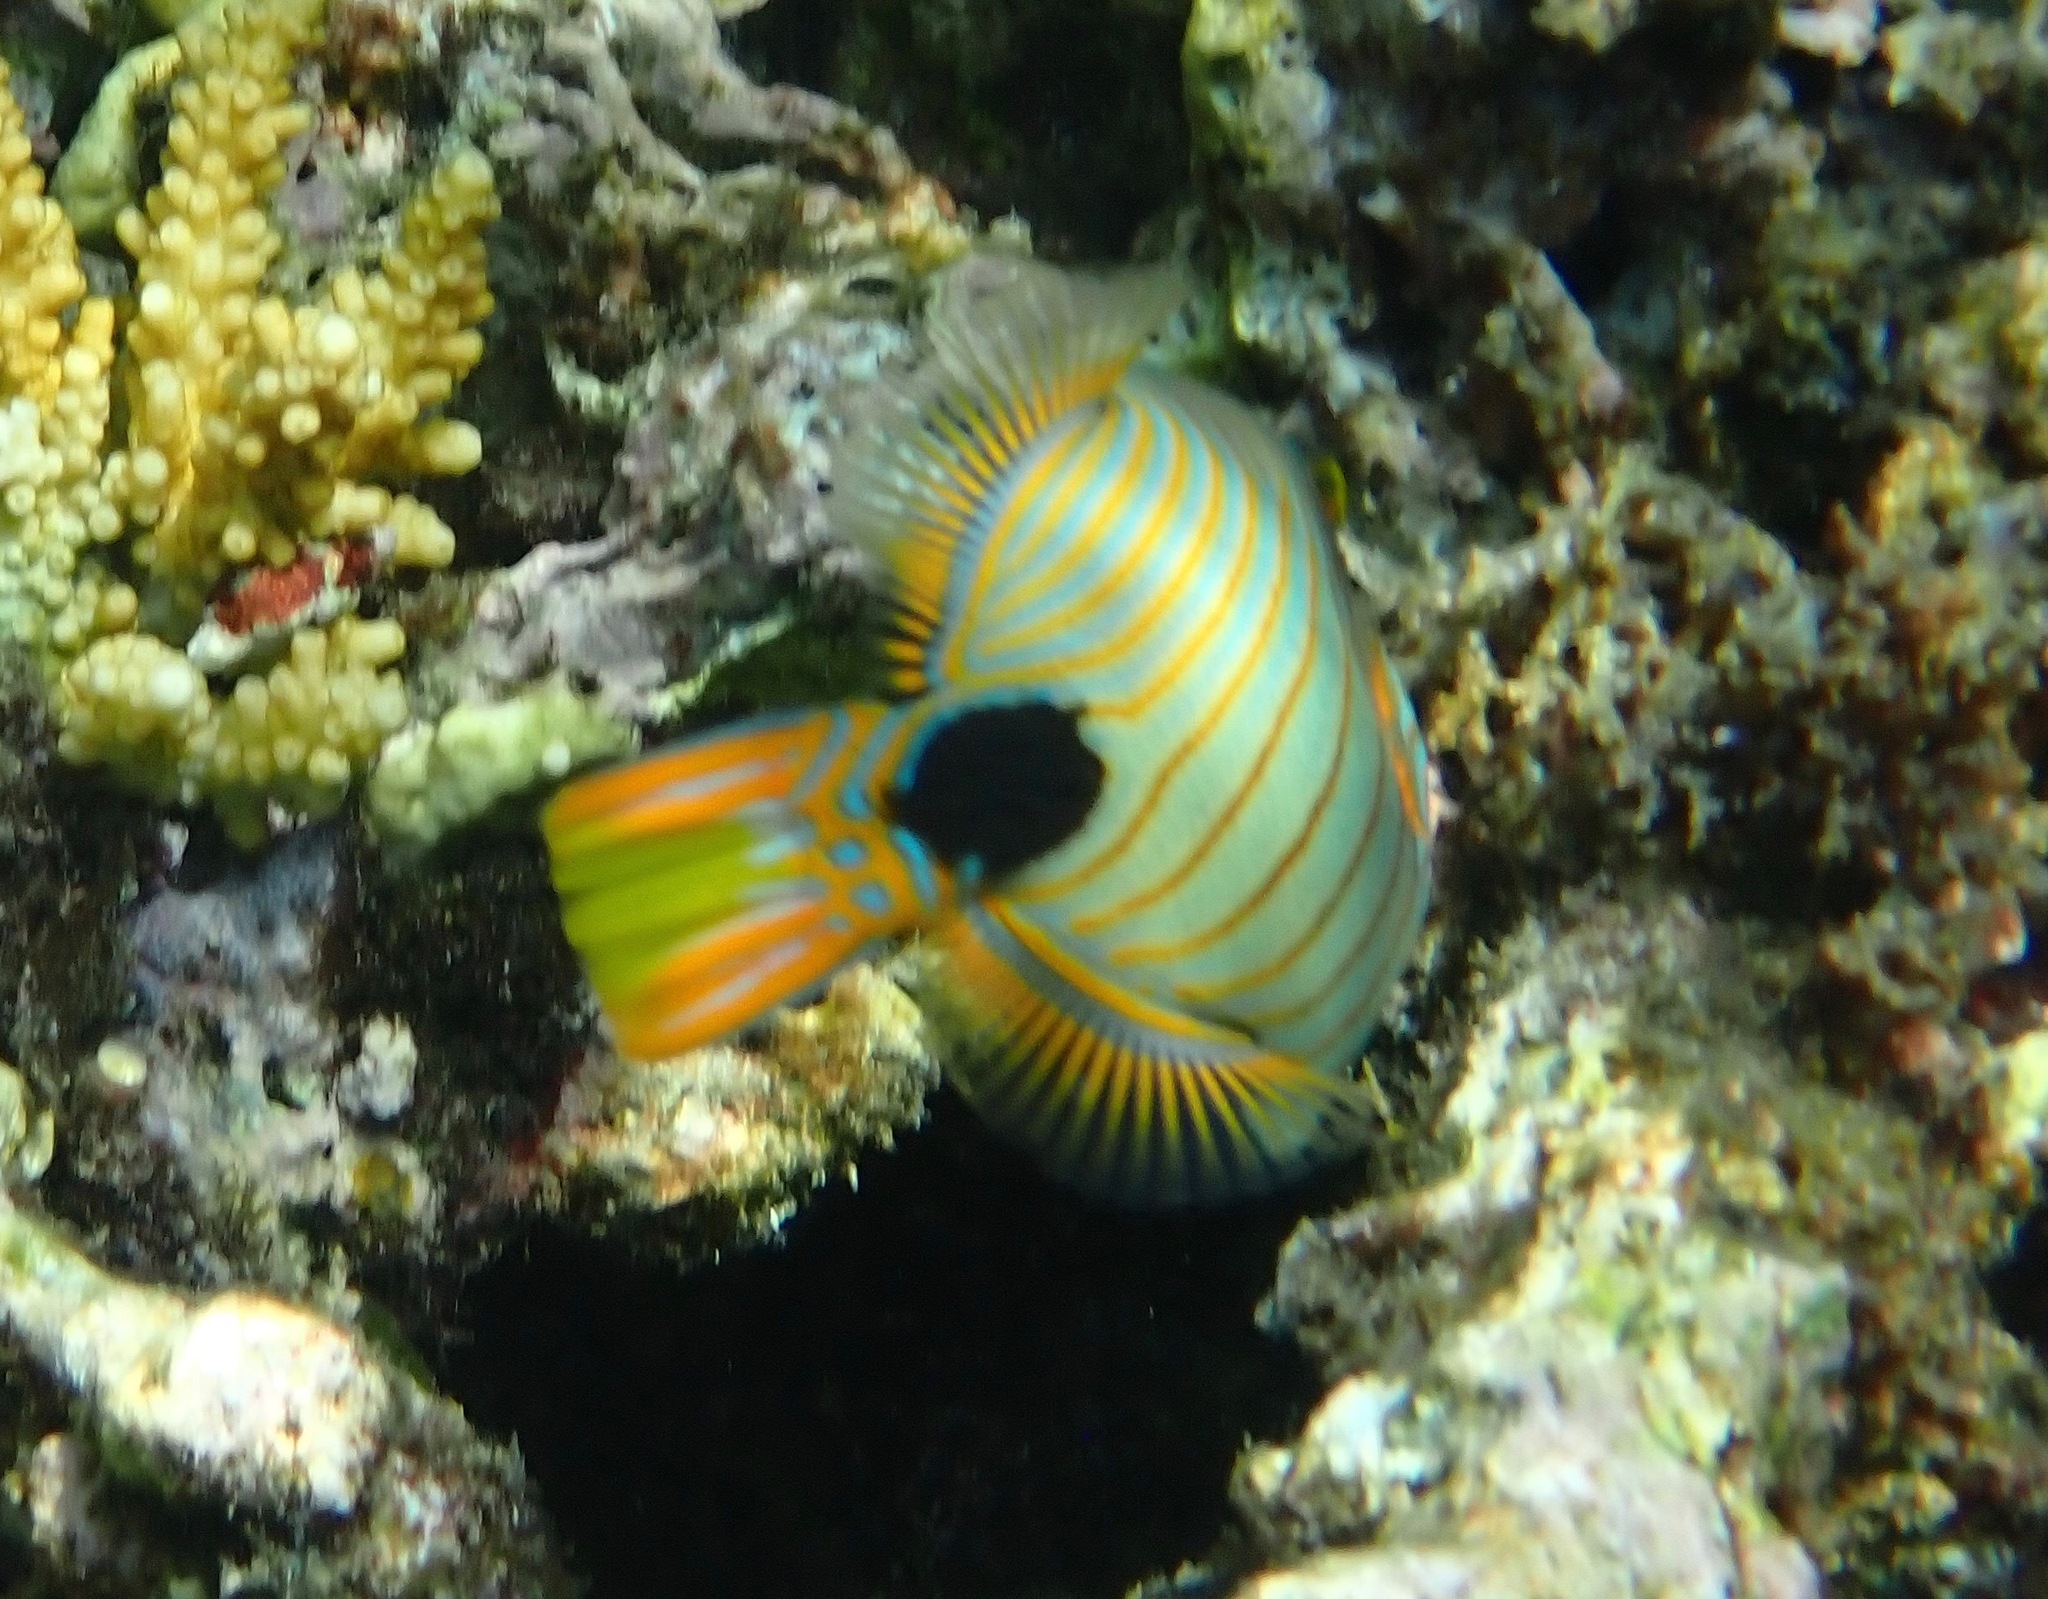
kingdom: Animalia
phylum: Chordata
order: Tetraodontiformes
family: Balistidae
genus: Balistapus
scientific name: Balistapus undulatus
